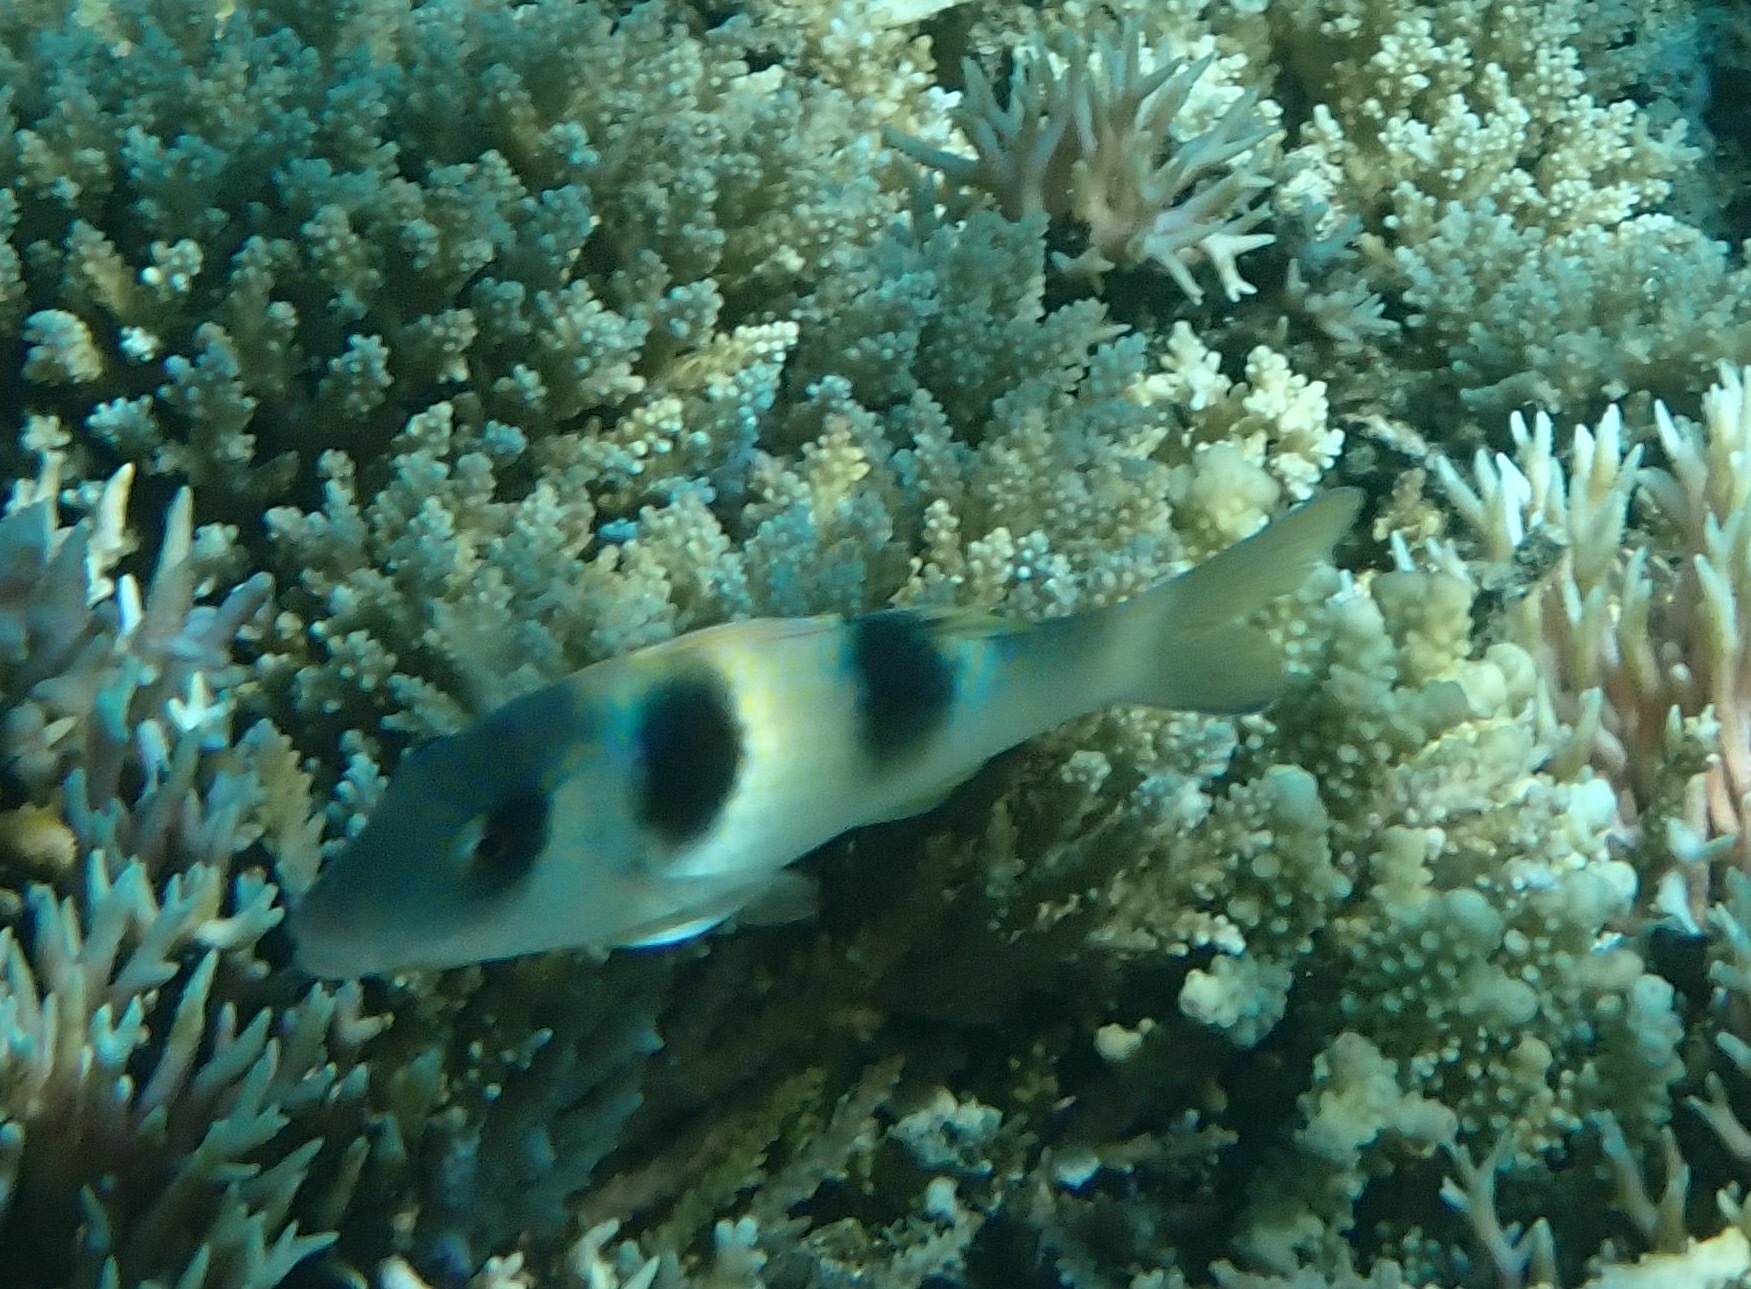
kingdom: Animalia
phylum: Chordata
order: Perciformes
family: Mullidae
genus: Parupeneus
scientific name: Parupeneus crassilabris
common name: Doublebar goatfish
